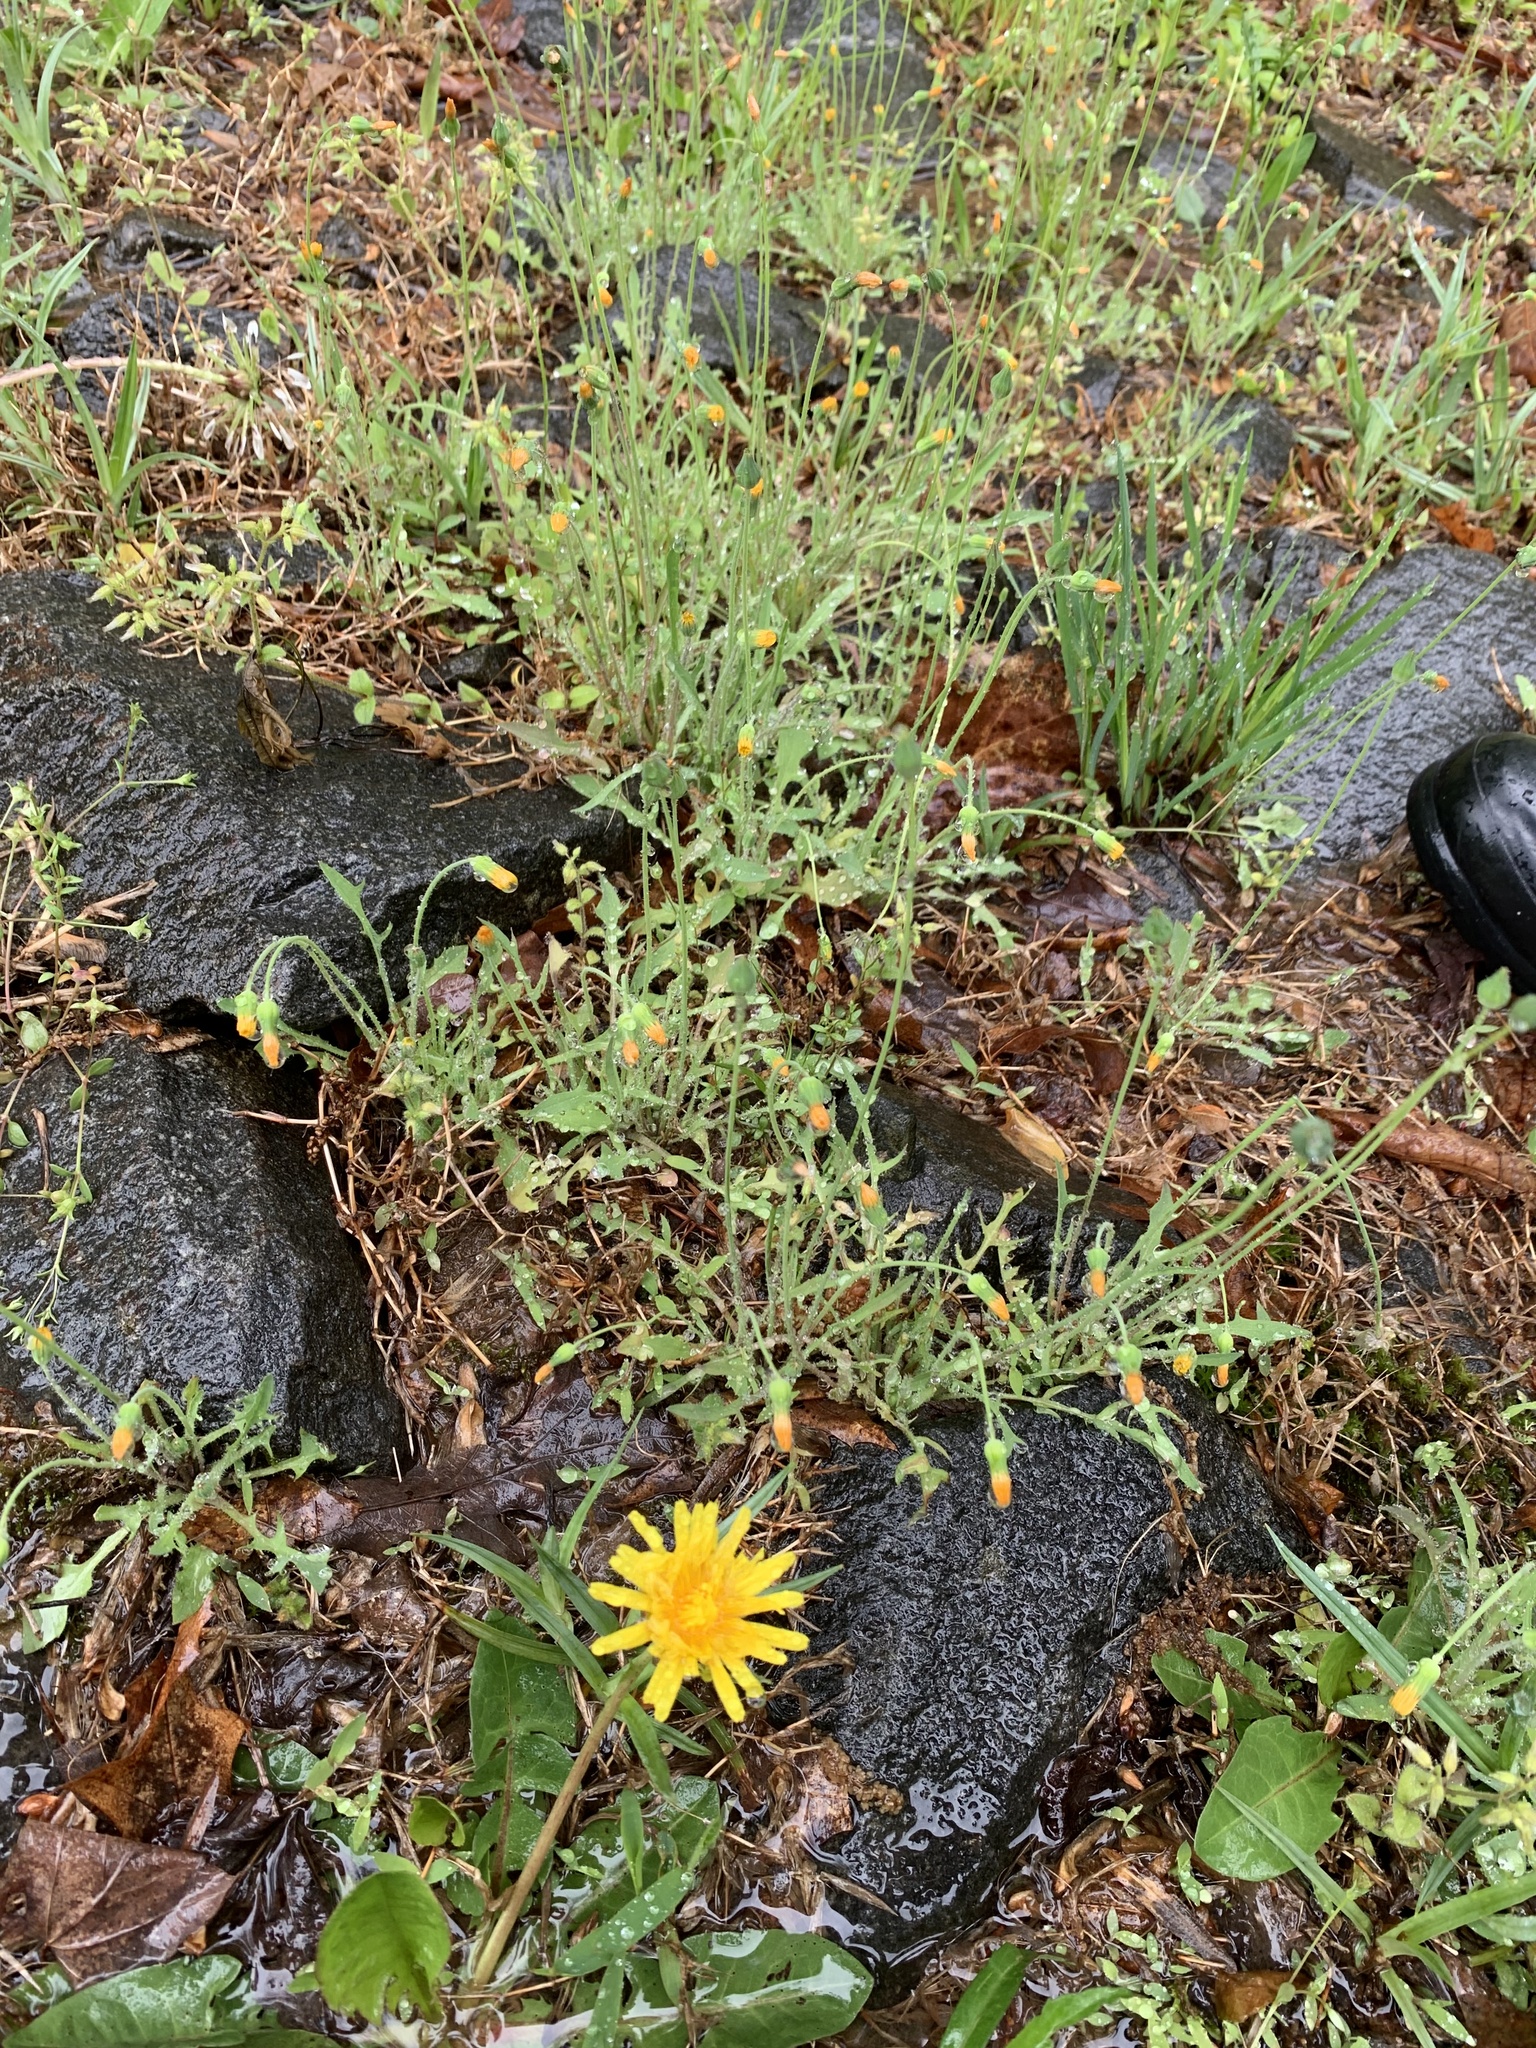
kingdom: Plantae
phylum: Tracheophyta
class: Magnoliopsida
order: Asterales
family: Asteraceae
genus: Krigia
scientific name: Krigia virginica
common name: Virginia dwarf-dandelion
